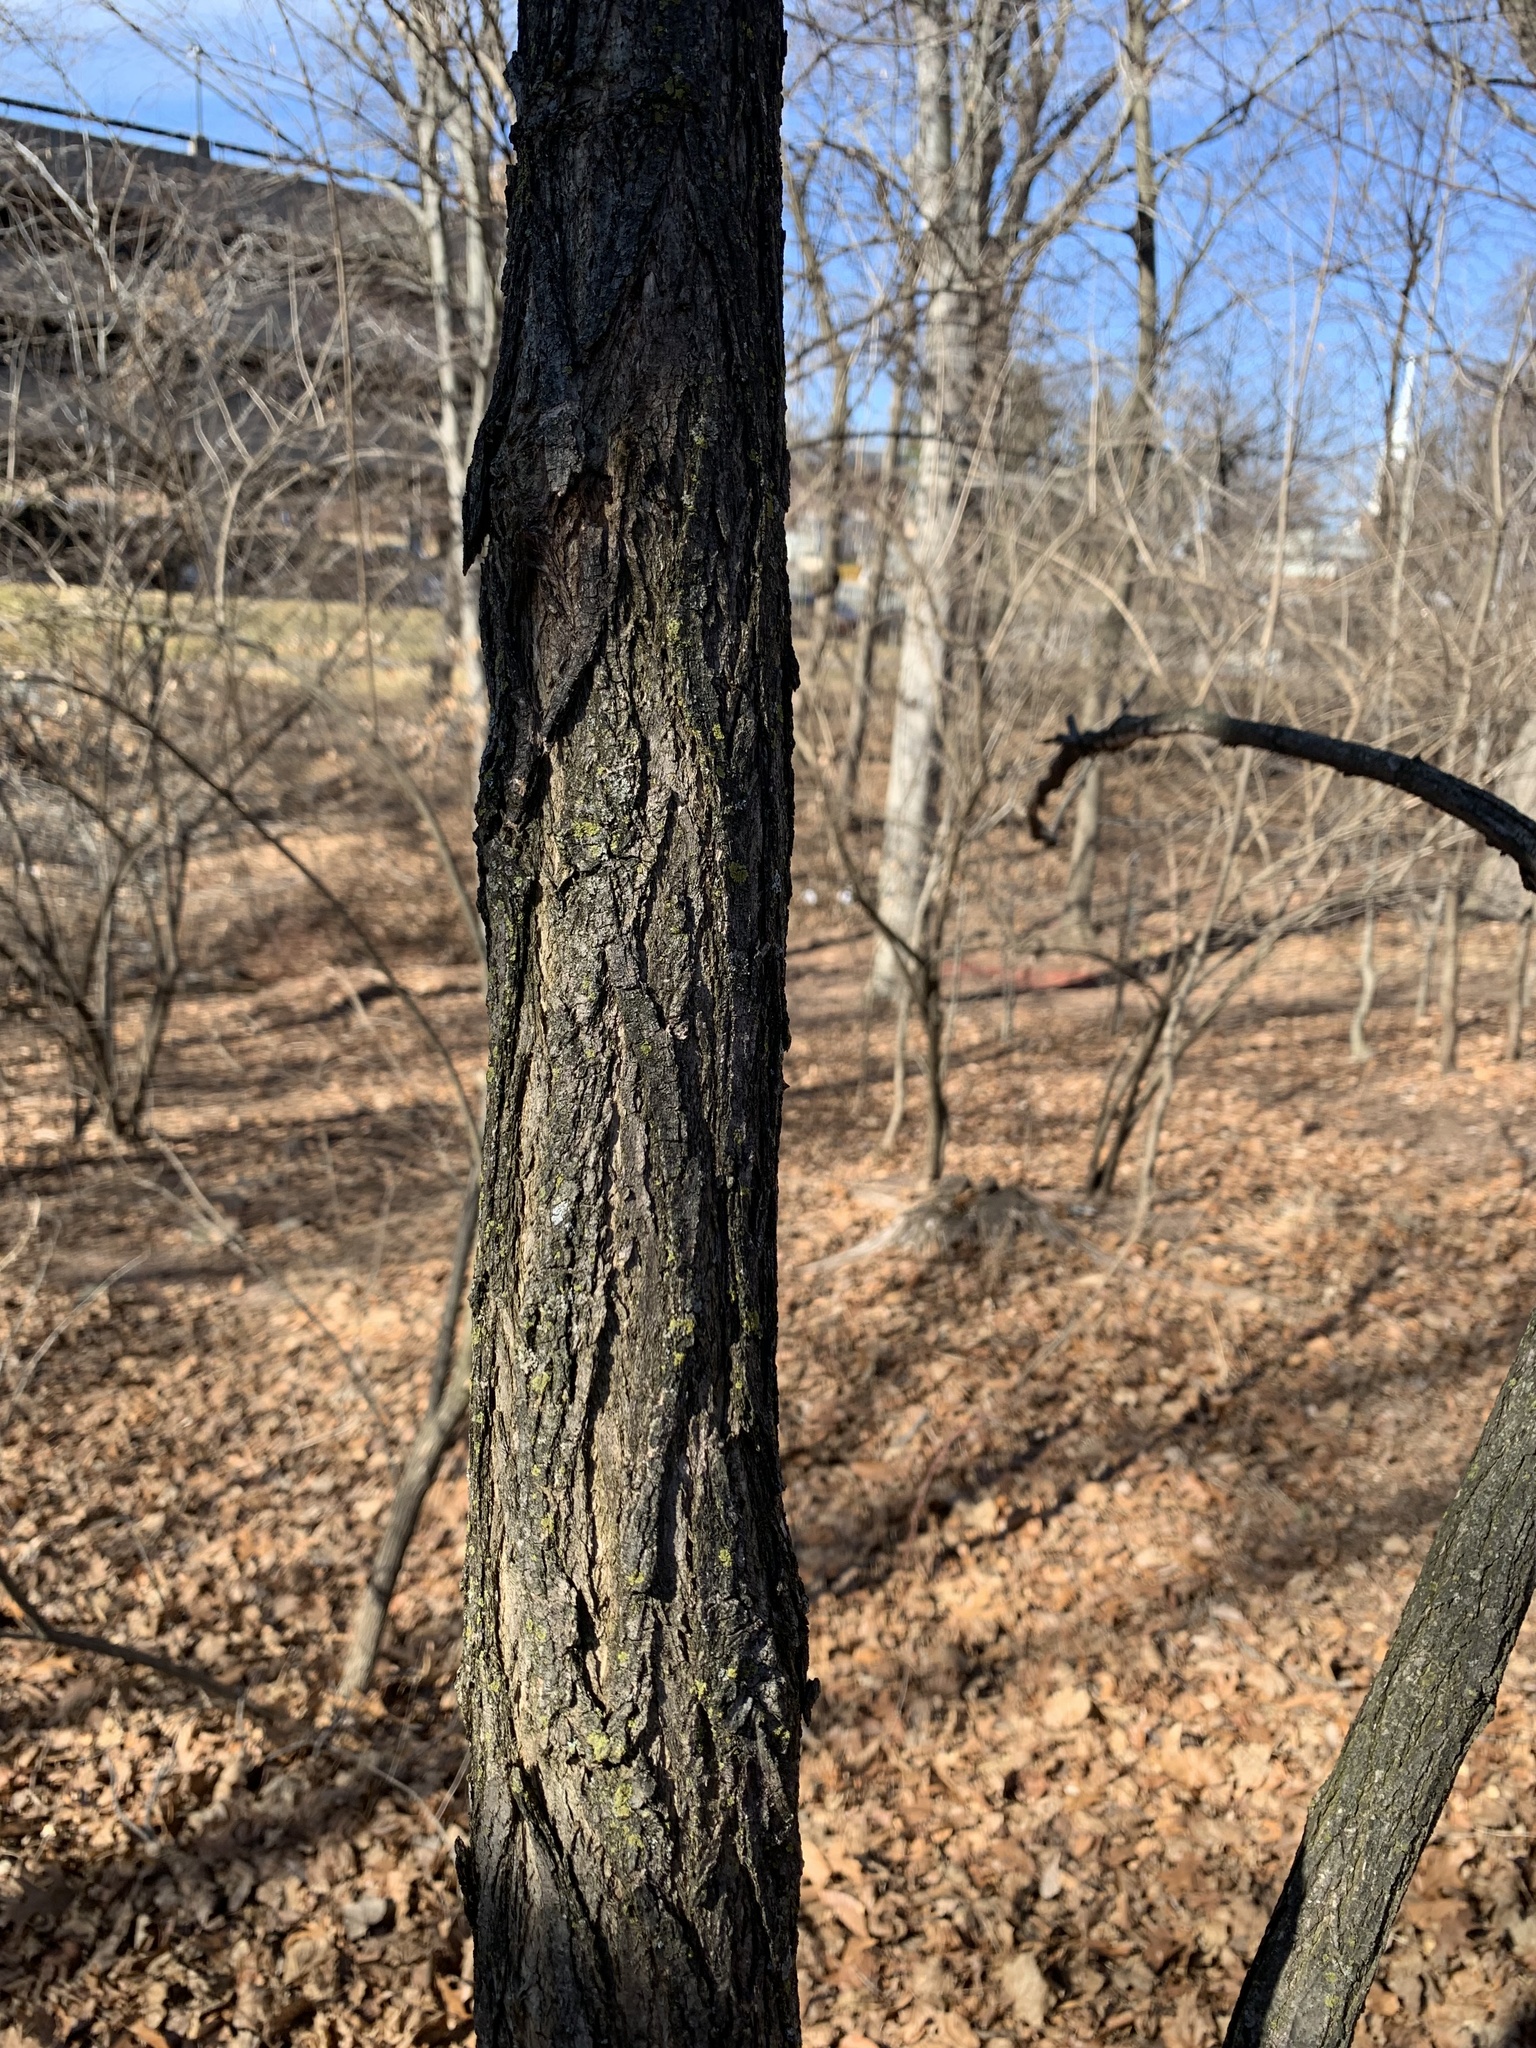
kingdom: Plantae
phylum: Tracheophyta
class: Magnoliopsida
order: Fabales
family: Fabaceae
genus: Robinia
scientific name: Robinia pseudoacacia
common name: Black locust
